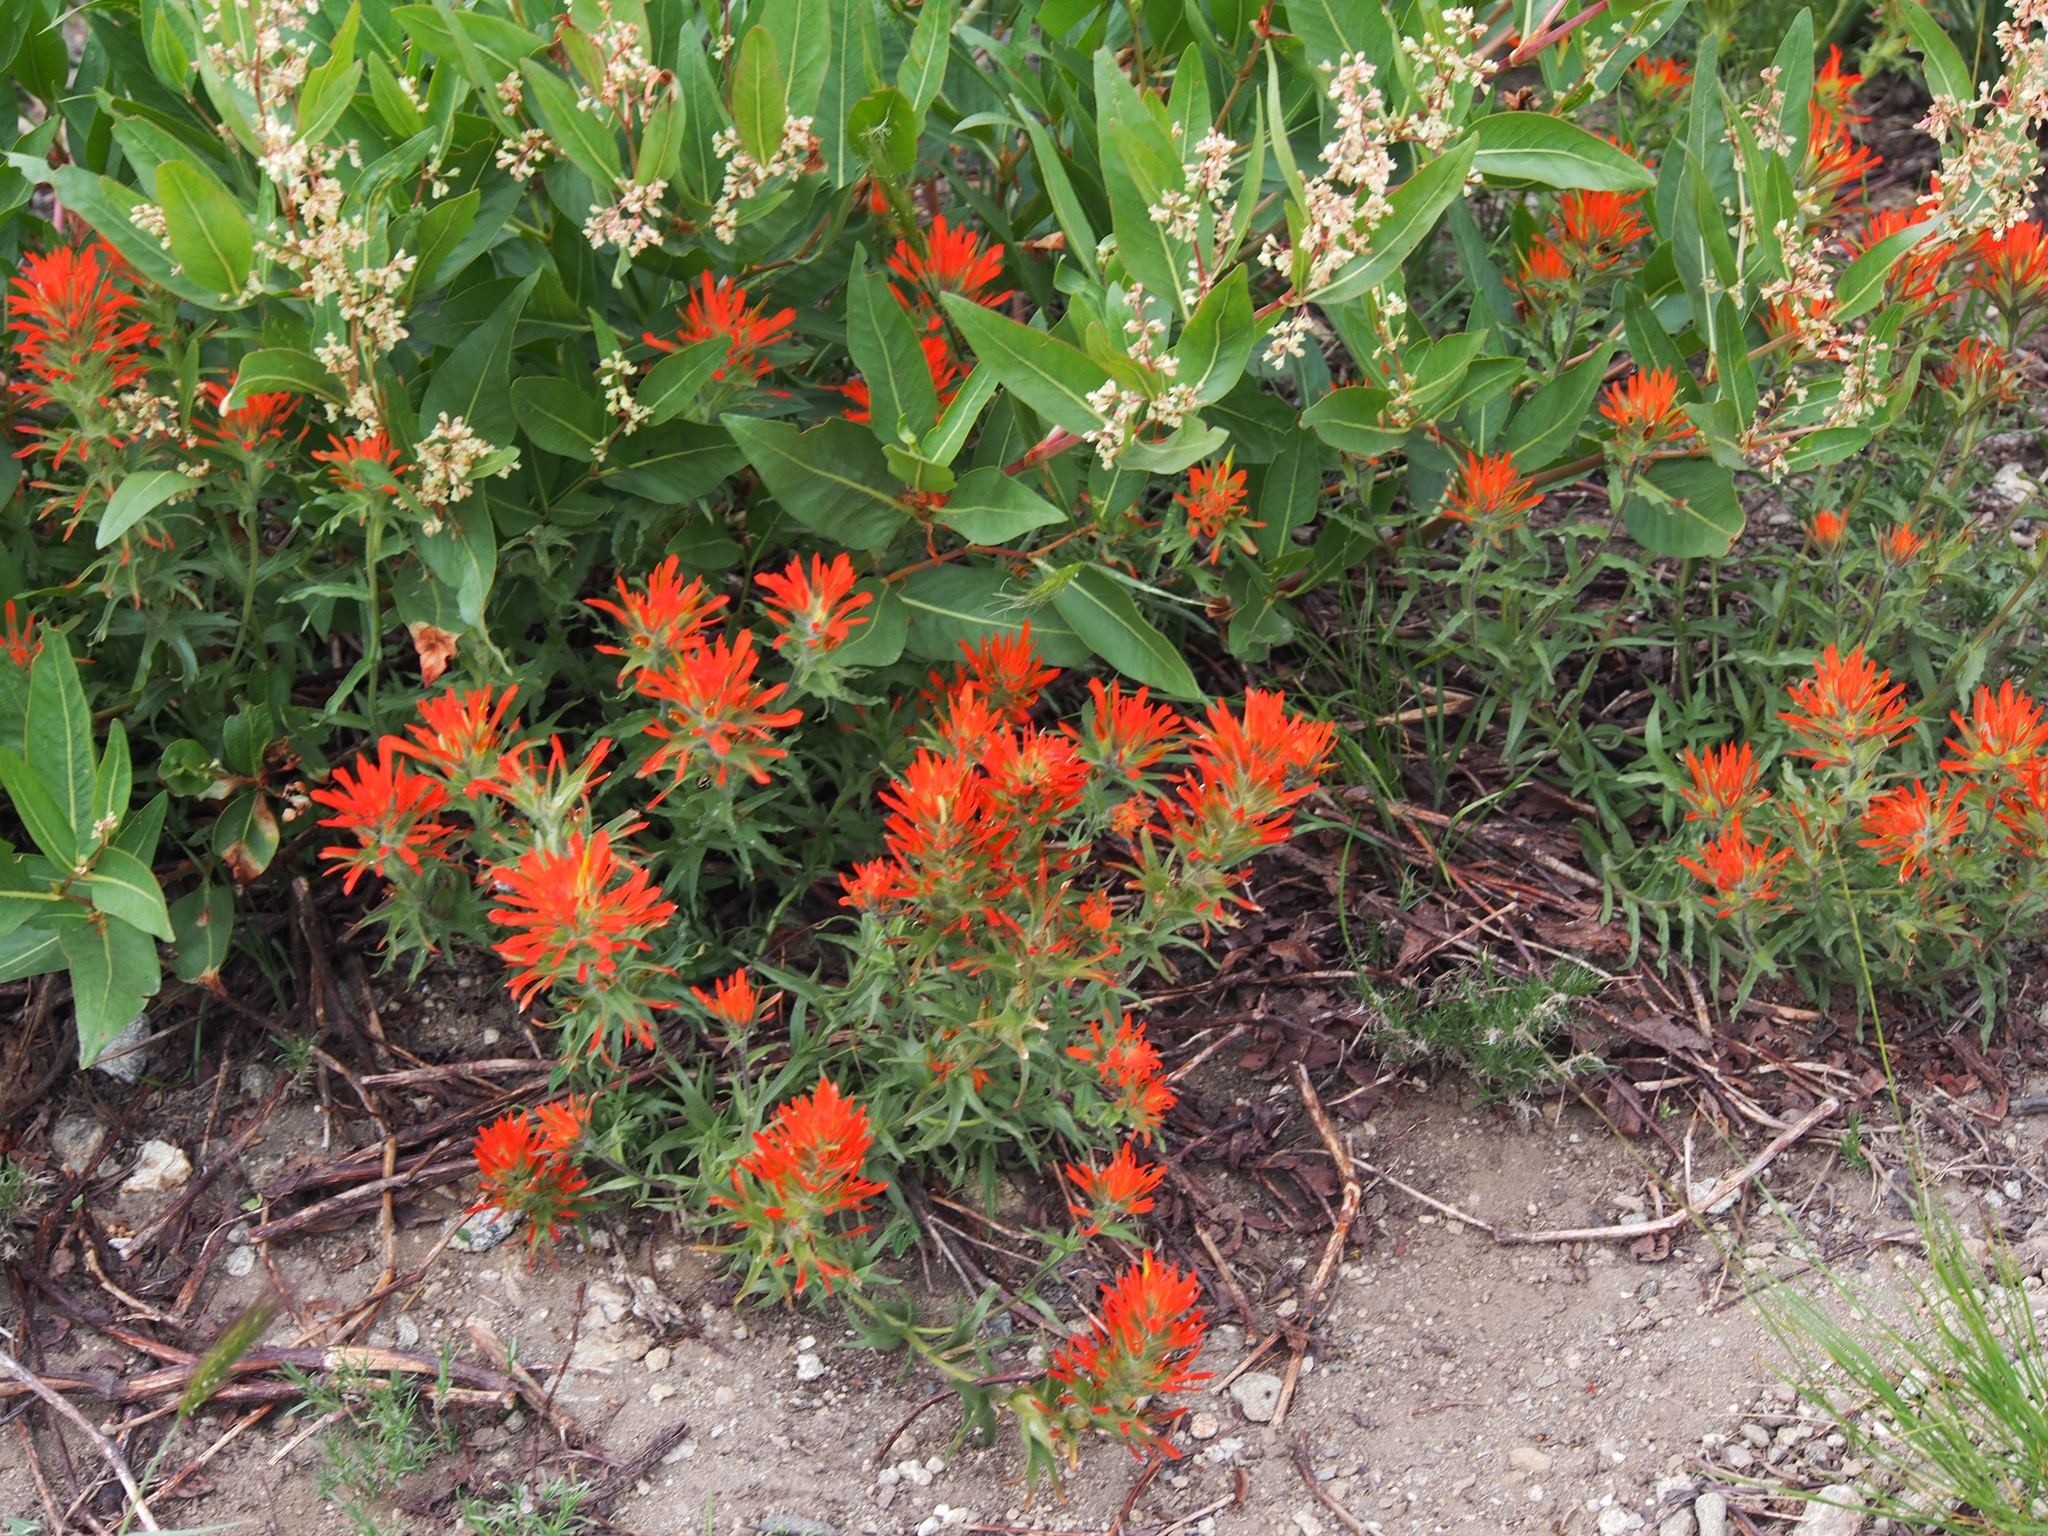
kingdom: Plantae
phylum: Tracheophyta
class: Magnoliopsida
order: Lamiales
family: Orobanchaceae
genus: Castilleja
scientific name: Castilleja hispida
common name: Bristly paintbrush
